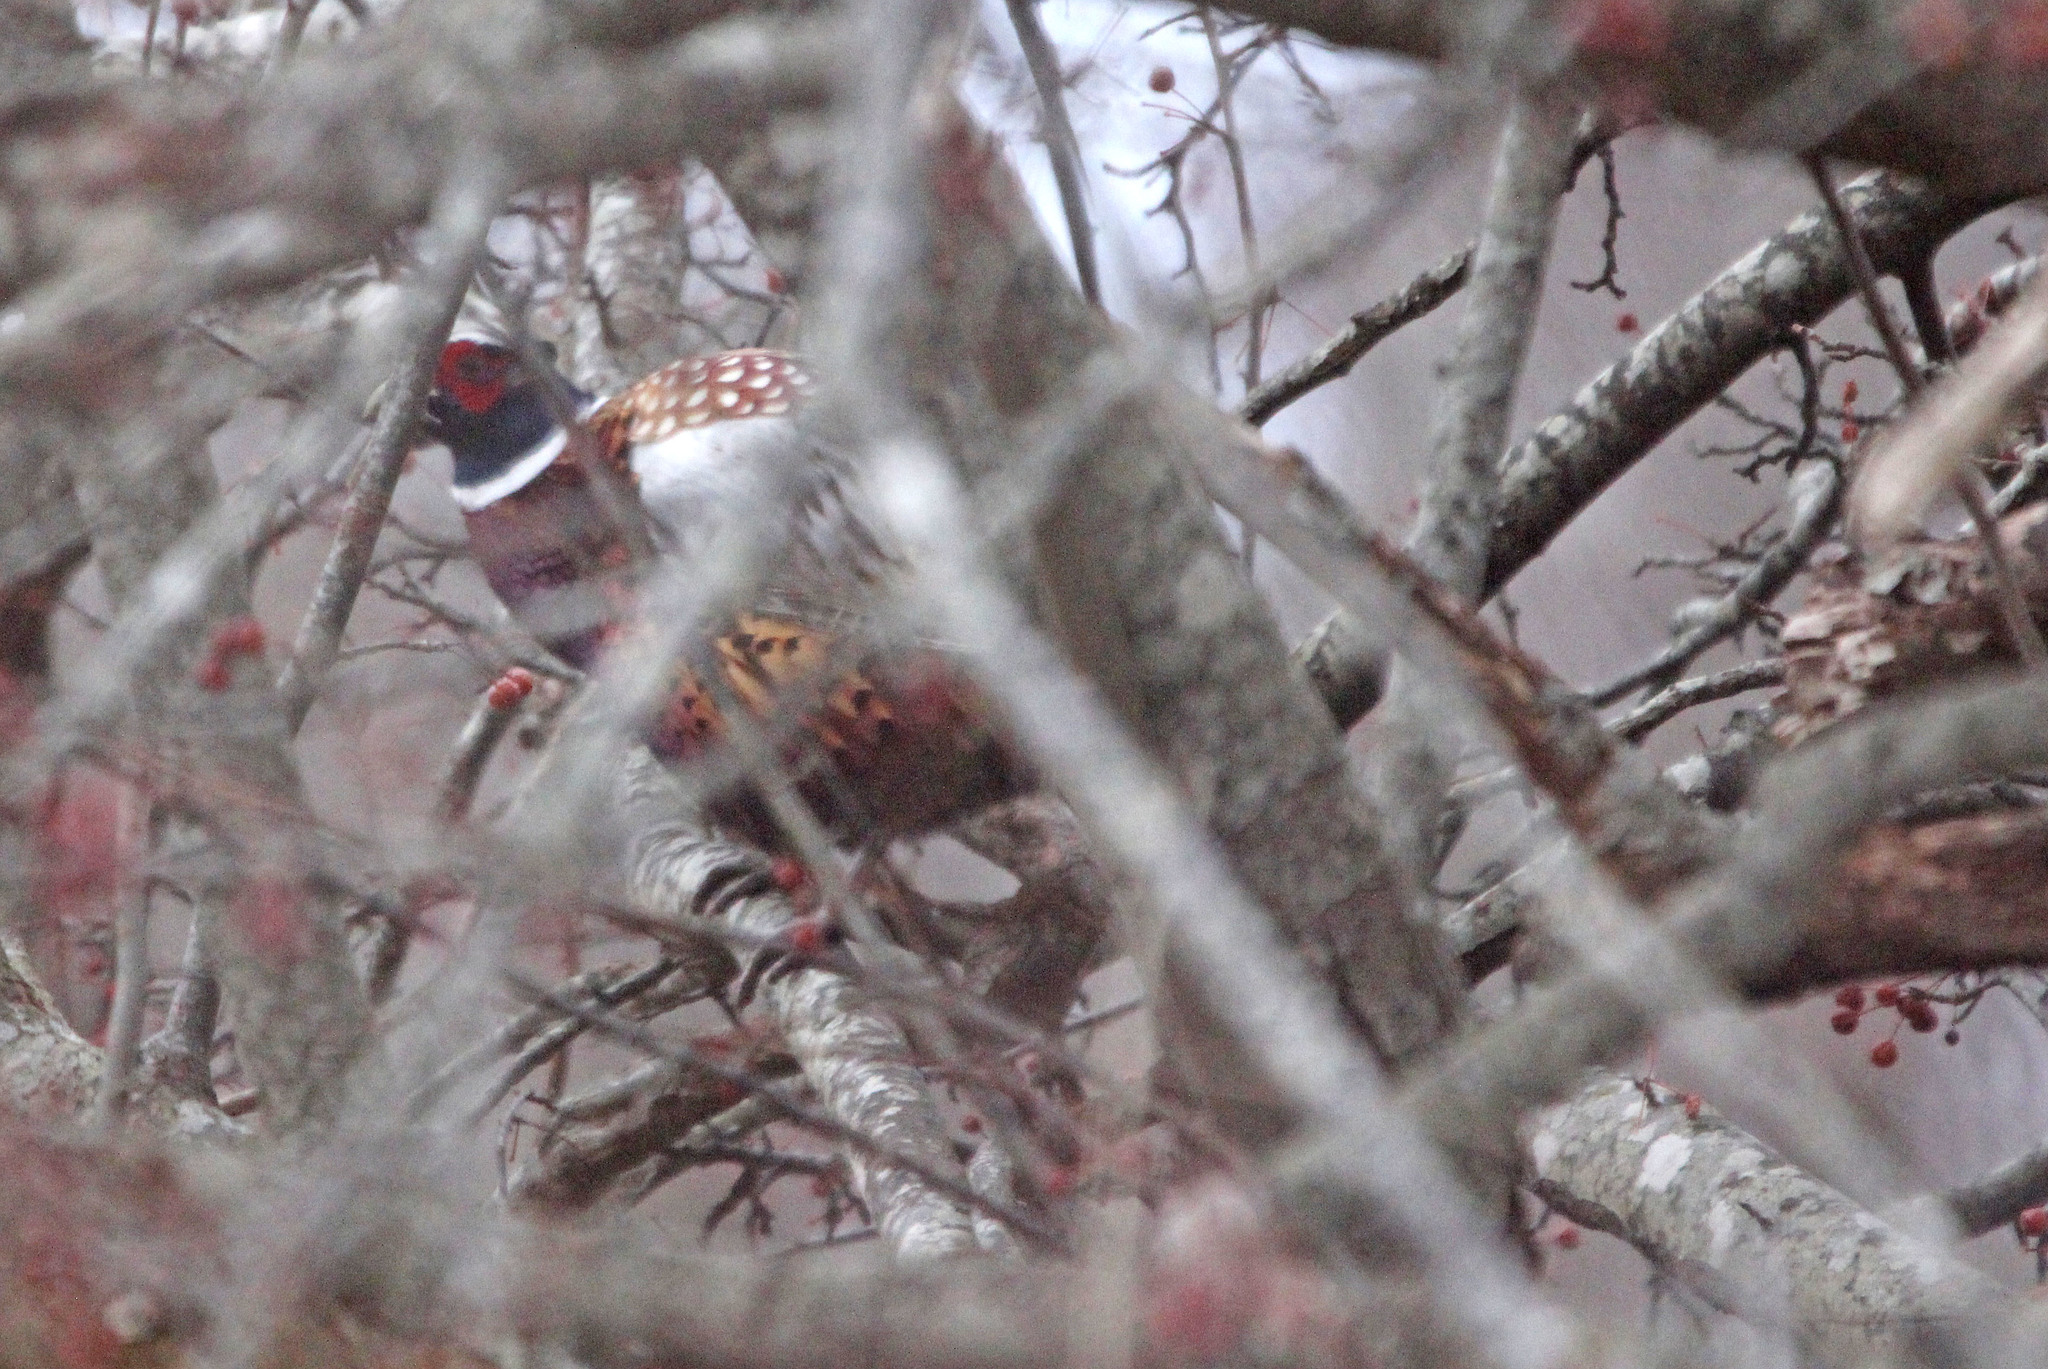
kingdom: Animalia
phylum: Chordata
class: Aves
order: Galliformes
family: Phasianidae
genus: Phasianus
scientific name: Phasianus colchicus
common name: Common pheasant
